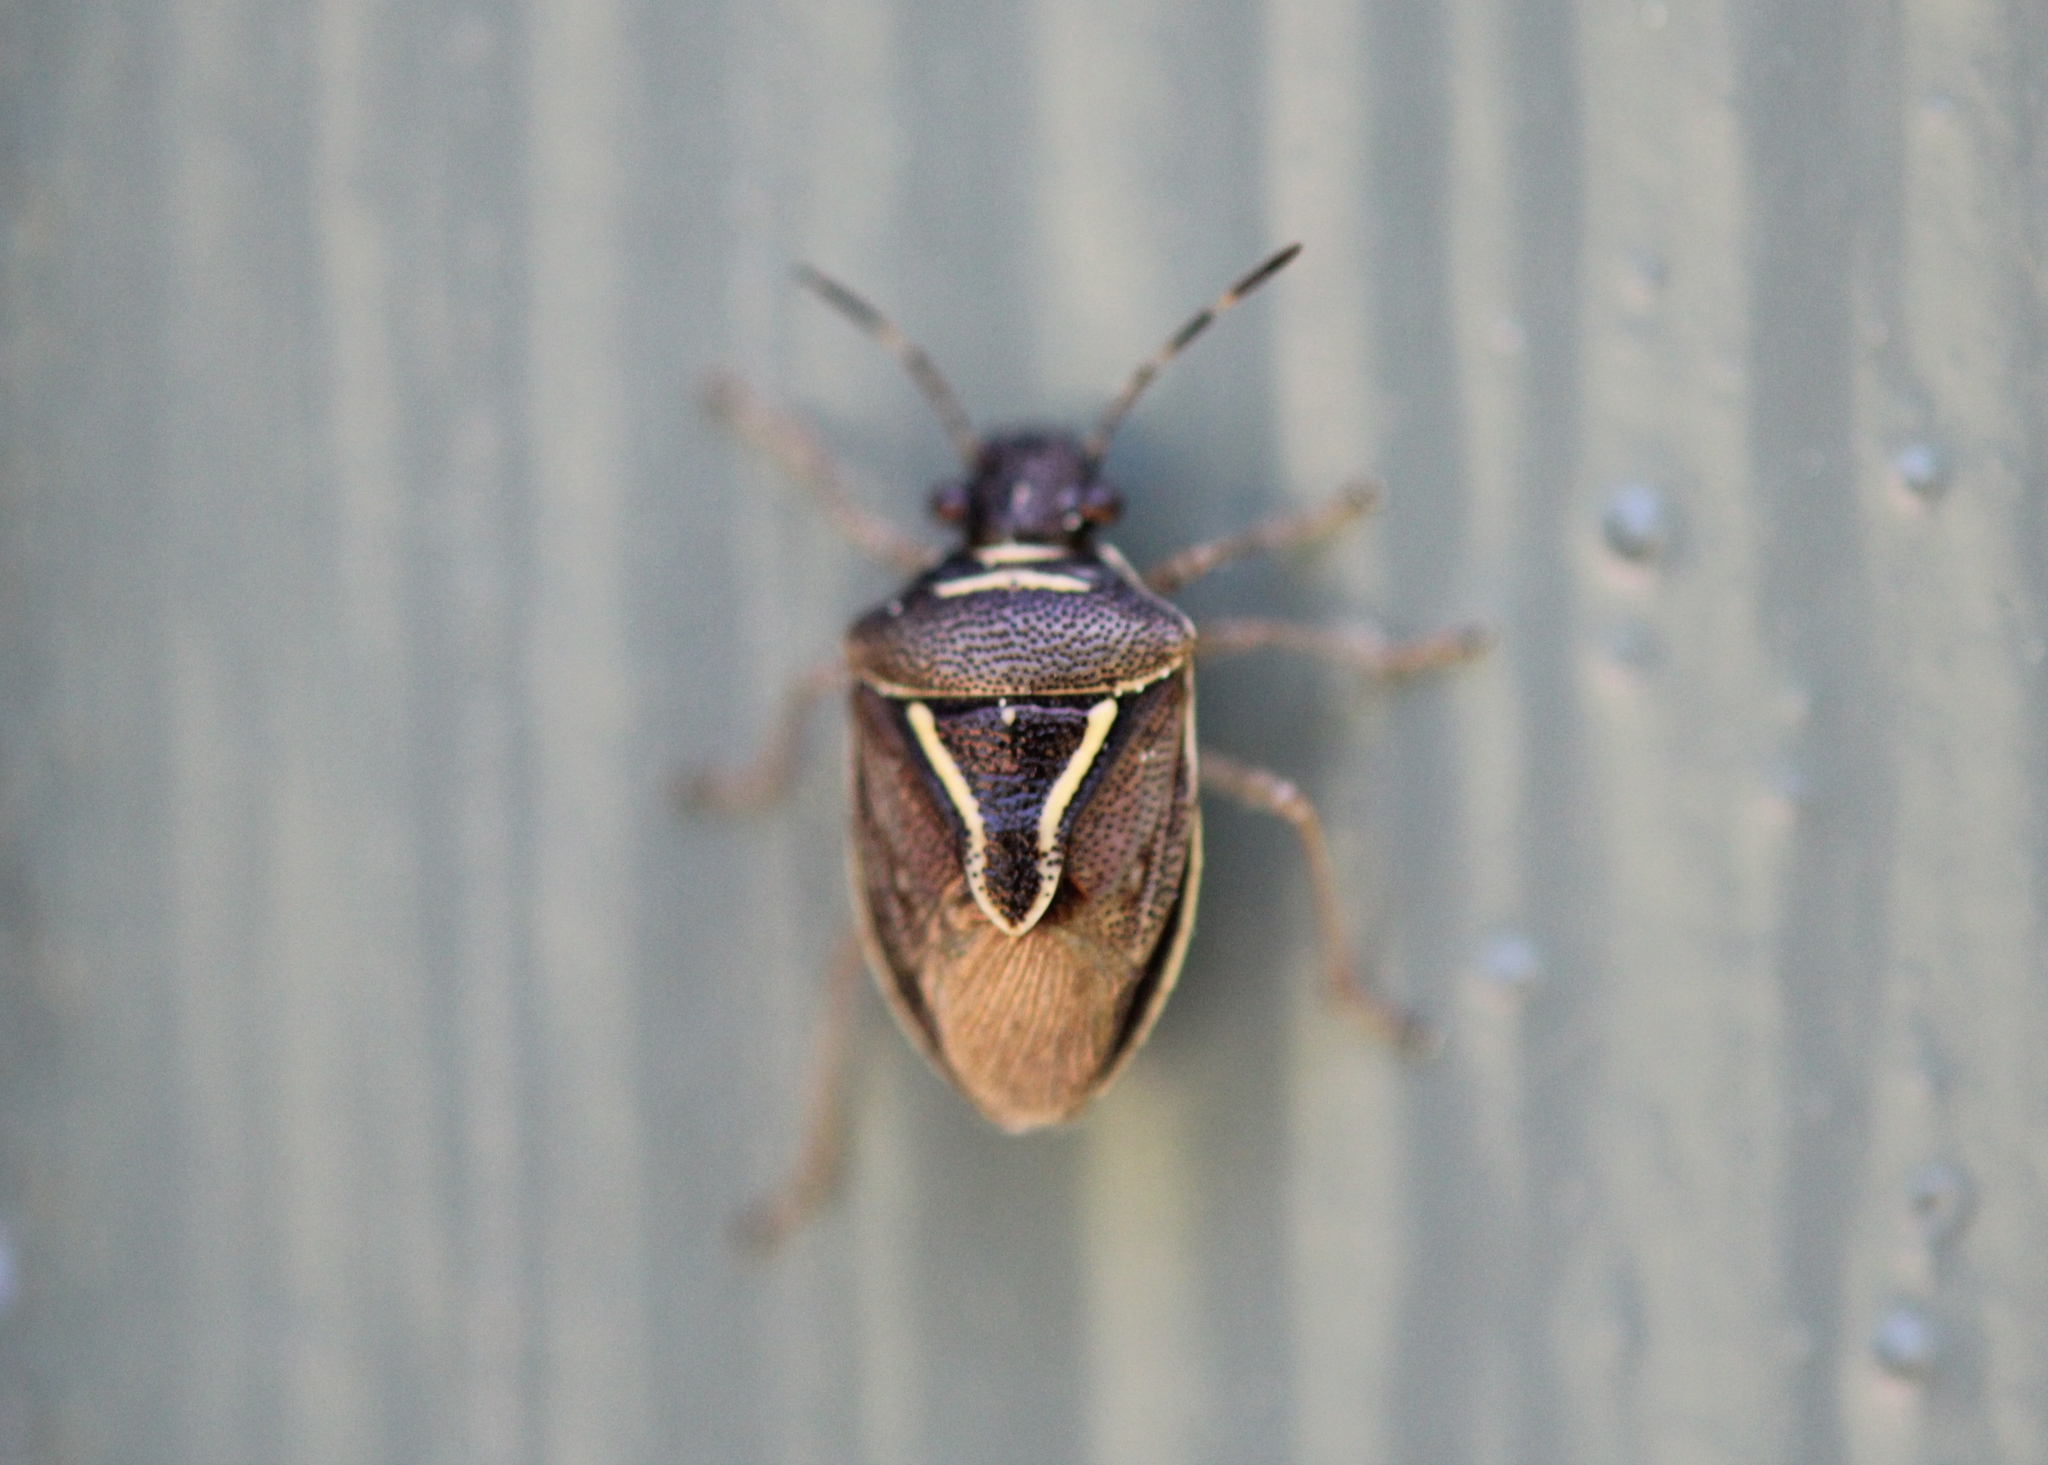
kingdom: Animalia
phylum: Arthropoda
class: Insecta
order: Hemiptera
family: Pentatomidae
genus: Mormidea
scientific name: Mormidea lugens
